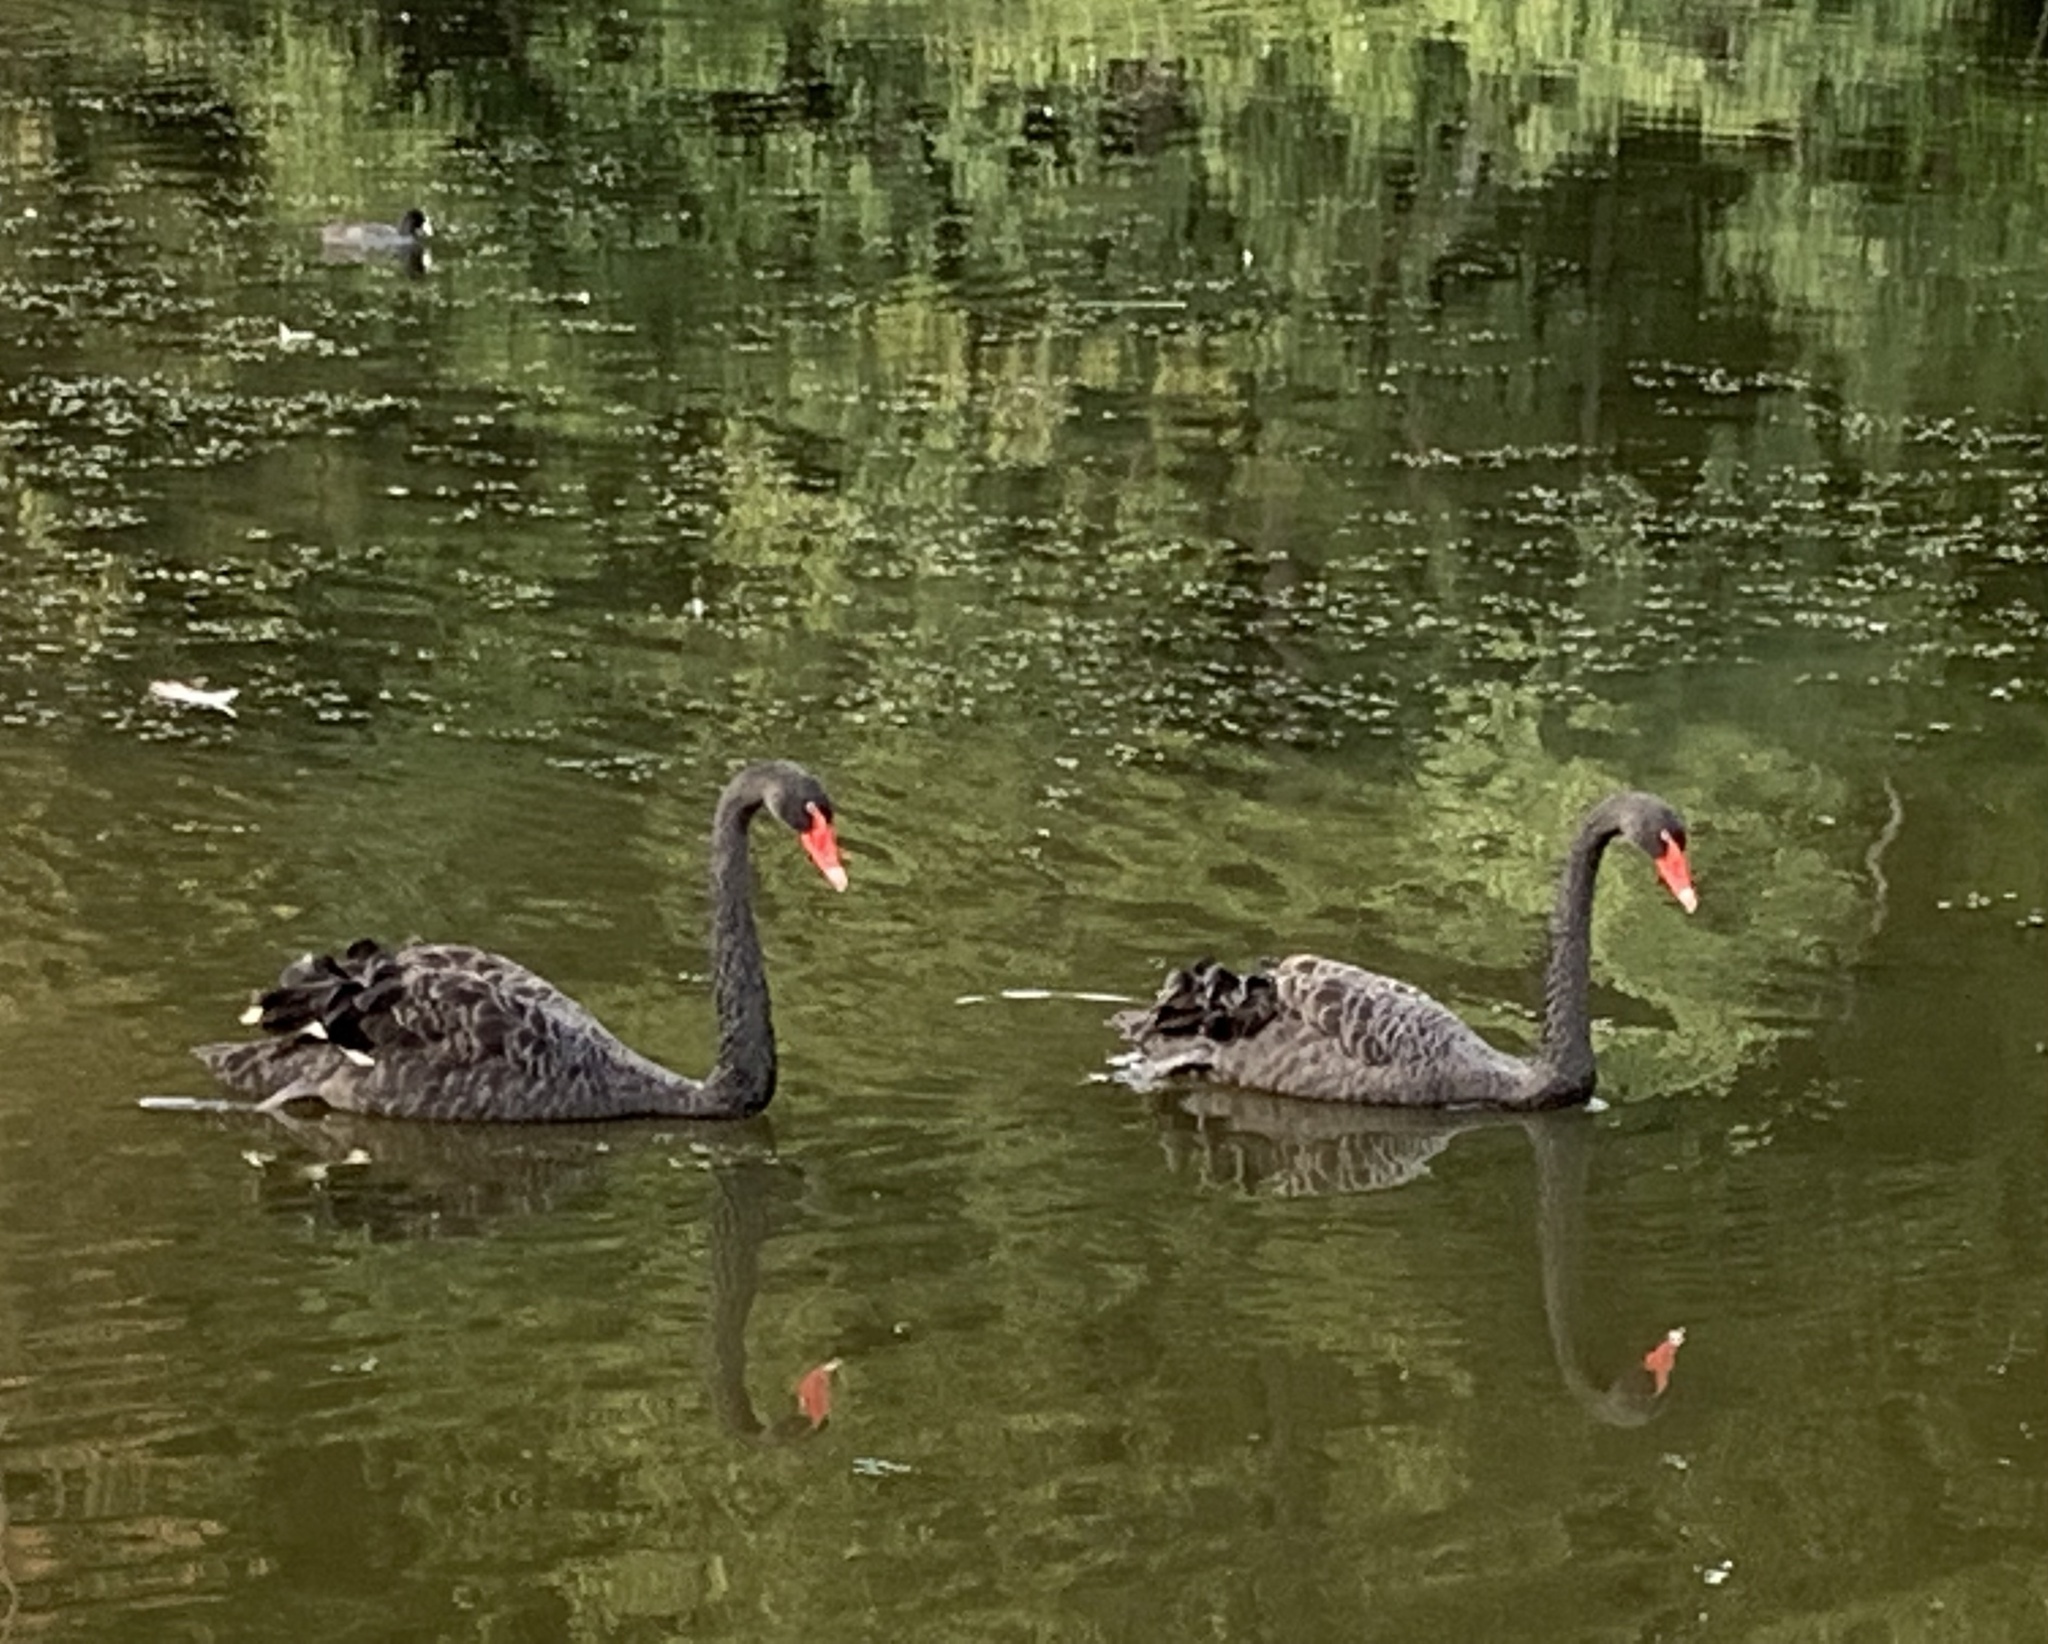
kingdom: Animalia
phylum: Chordata
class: Aves
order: Anseriformes
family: Anatidae
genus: Cygnus
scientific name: Cygnus atratus
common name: Black swan
